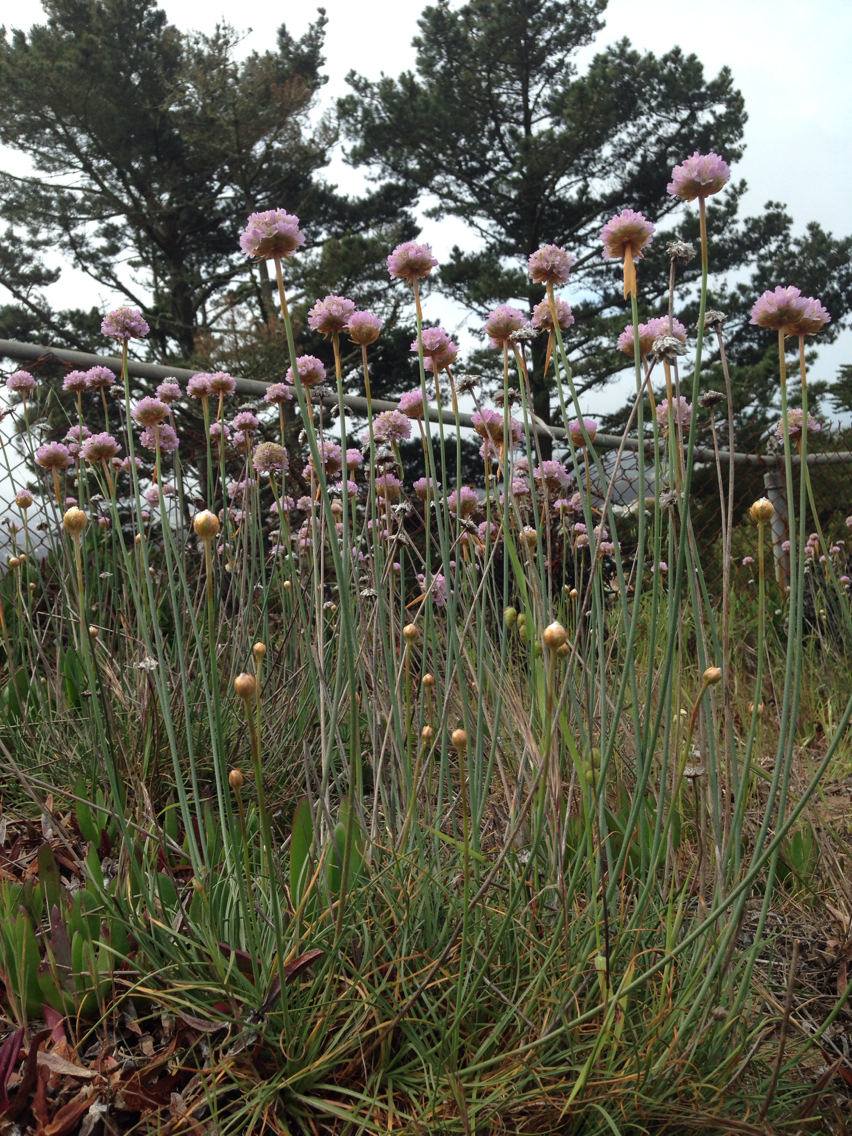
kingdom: Plantae
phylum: Tracheophyta
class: Magnoliopsida
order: Caryophyllales
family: Plumbaginaceae
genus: Armeria
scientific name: Armeria maritima
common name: Thrift
